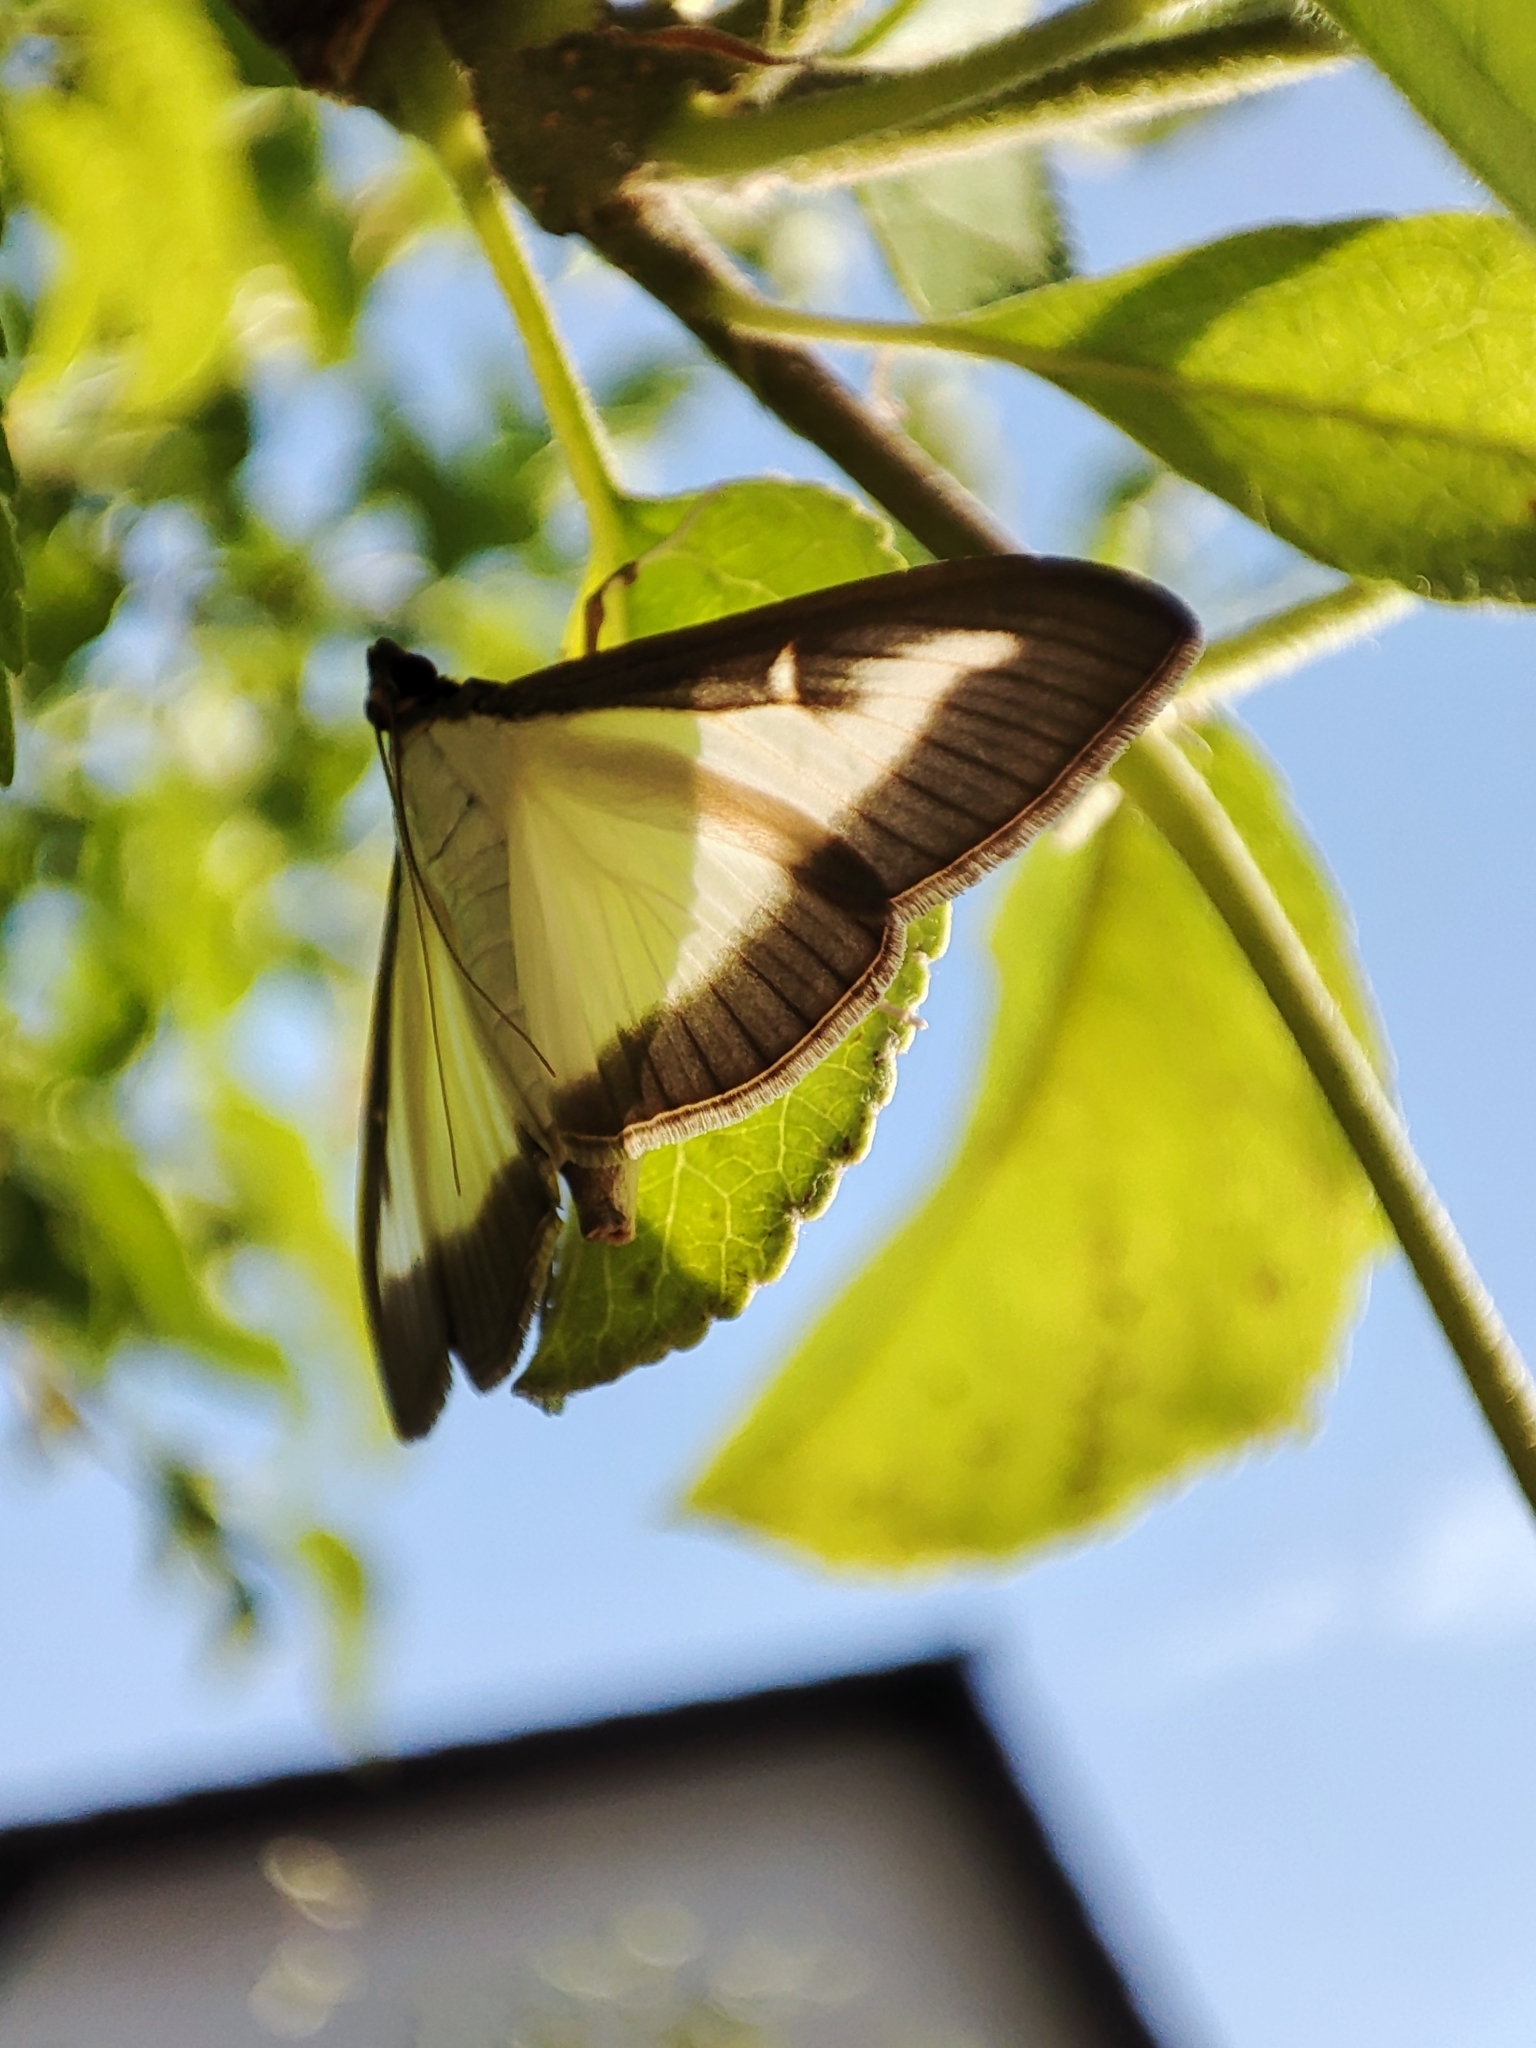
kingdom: Animalia
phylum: Arthropoda
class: Insecta
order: Lepidoptera
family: Crambidae
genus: Cydalima
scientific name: Cydalima perspectalis
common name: Box tree moth
